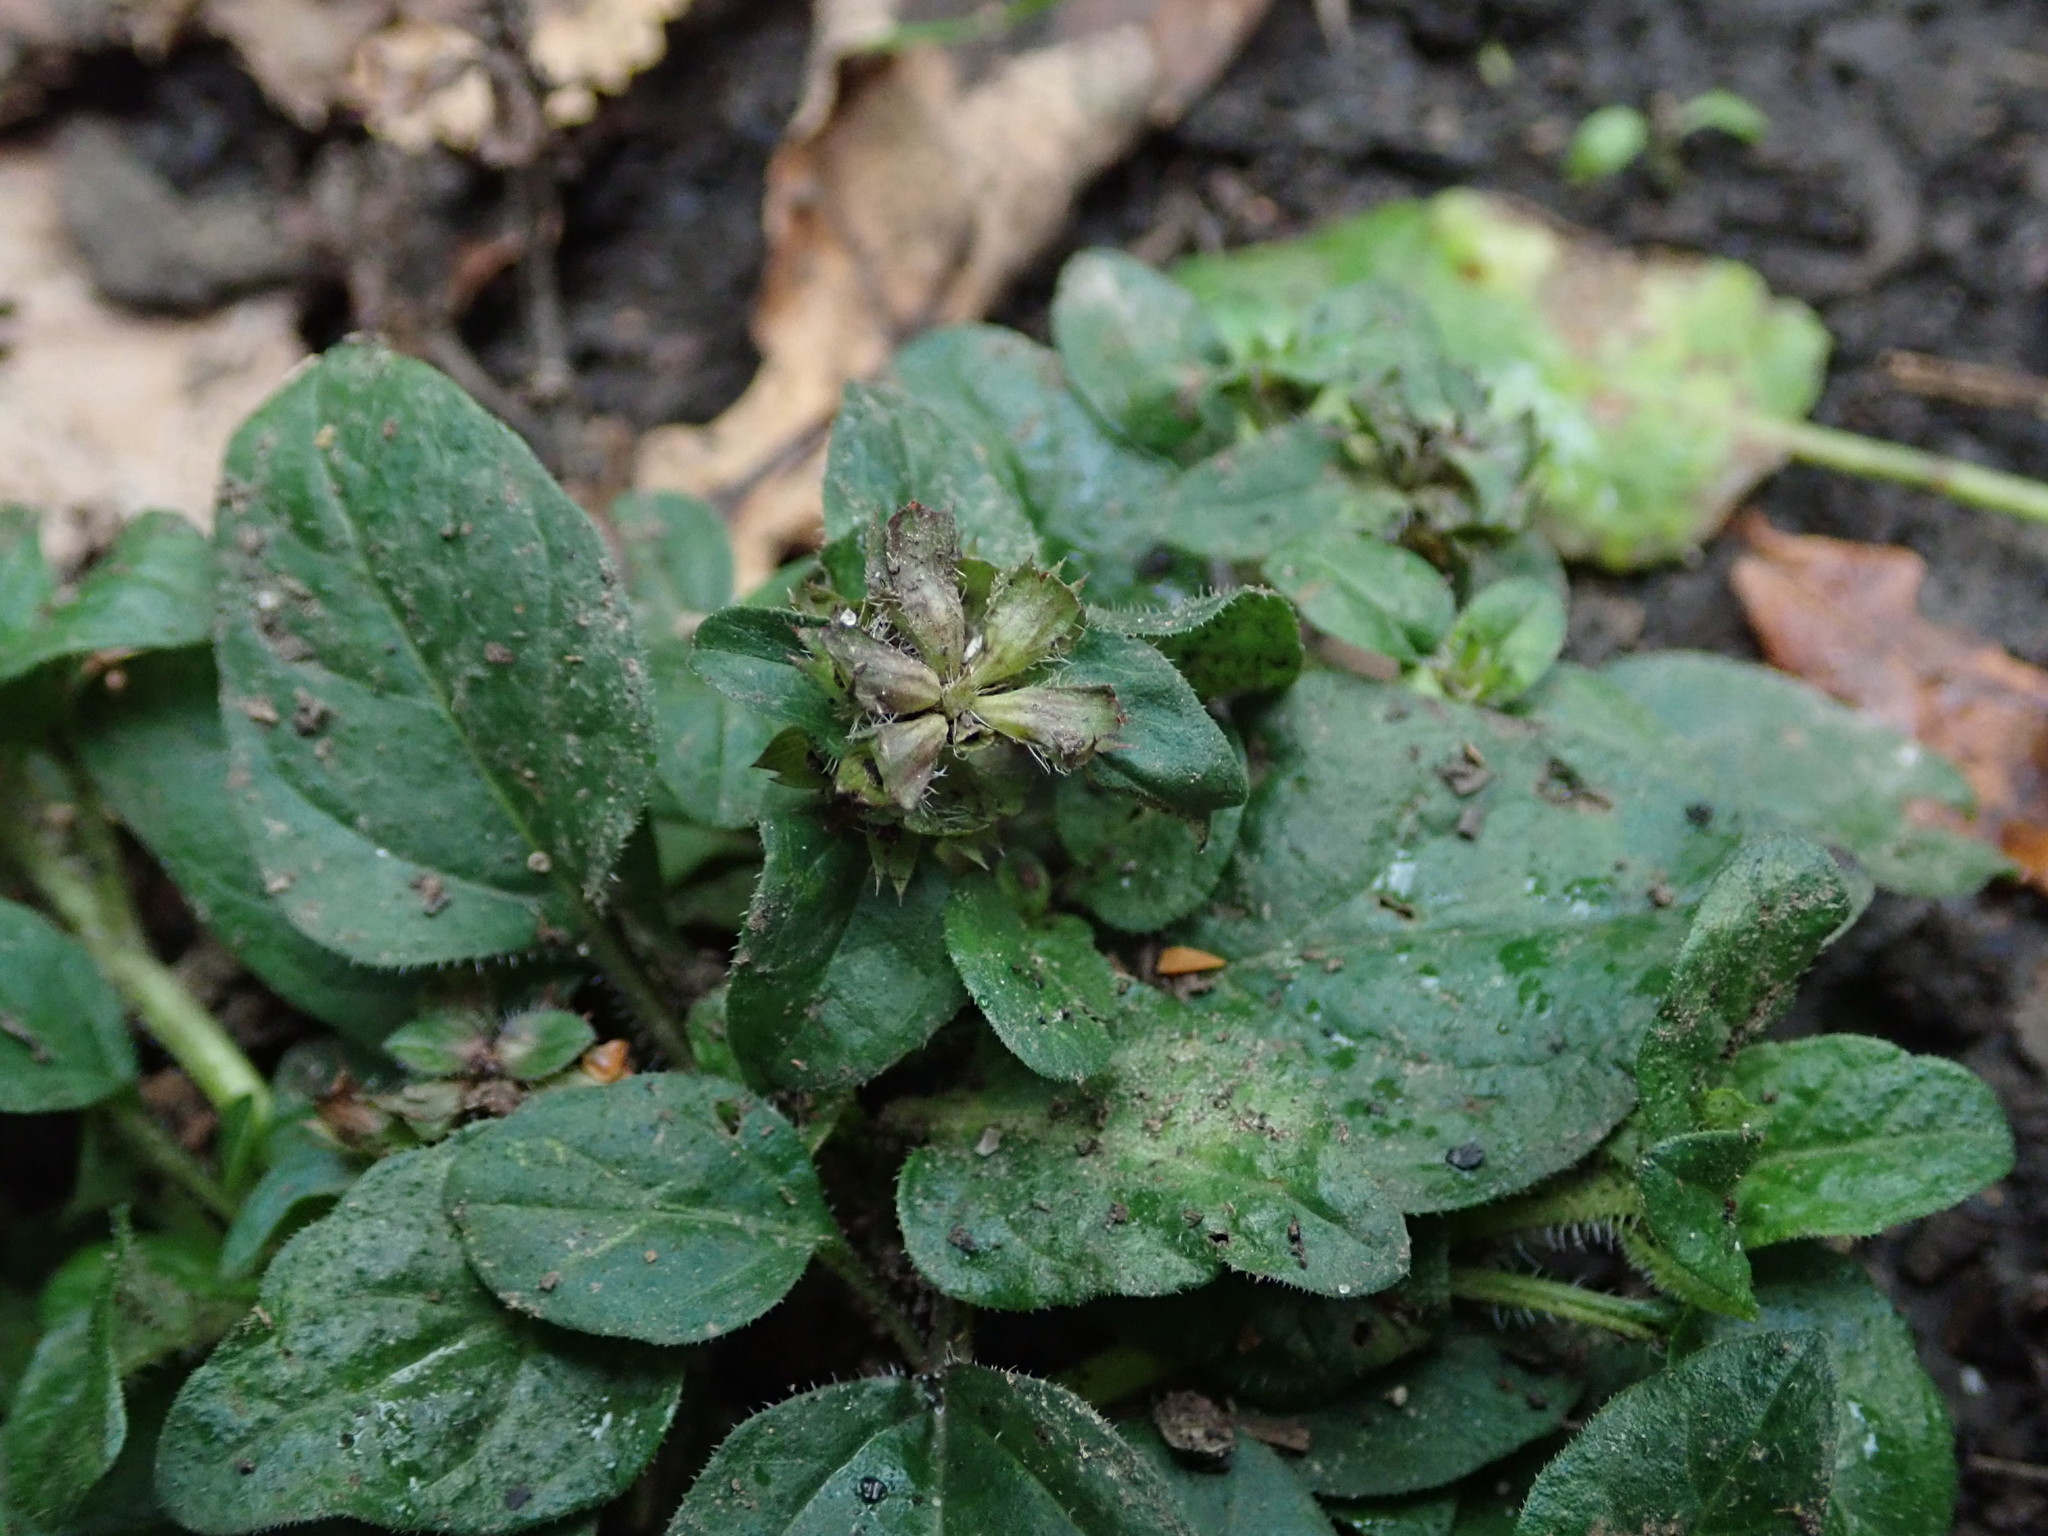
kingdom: Plantae
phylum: Tracheophyta
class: Magnoliopsida
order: Lamiales
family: Lamiaceae
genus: Prunella
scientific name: Prunella vulgaris
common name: Heal-all
